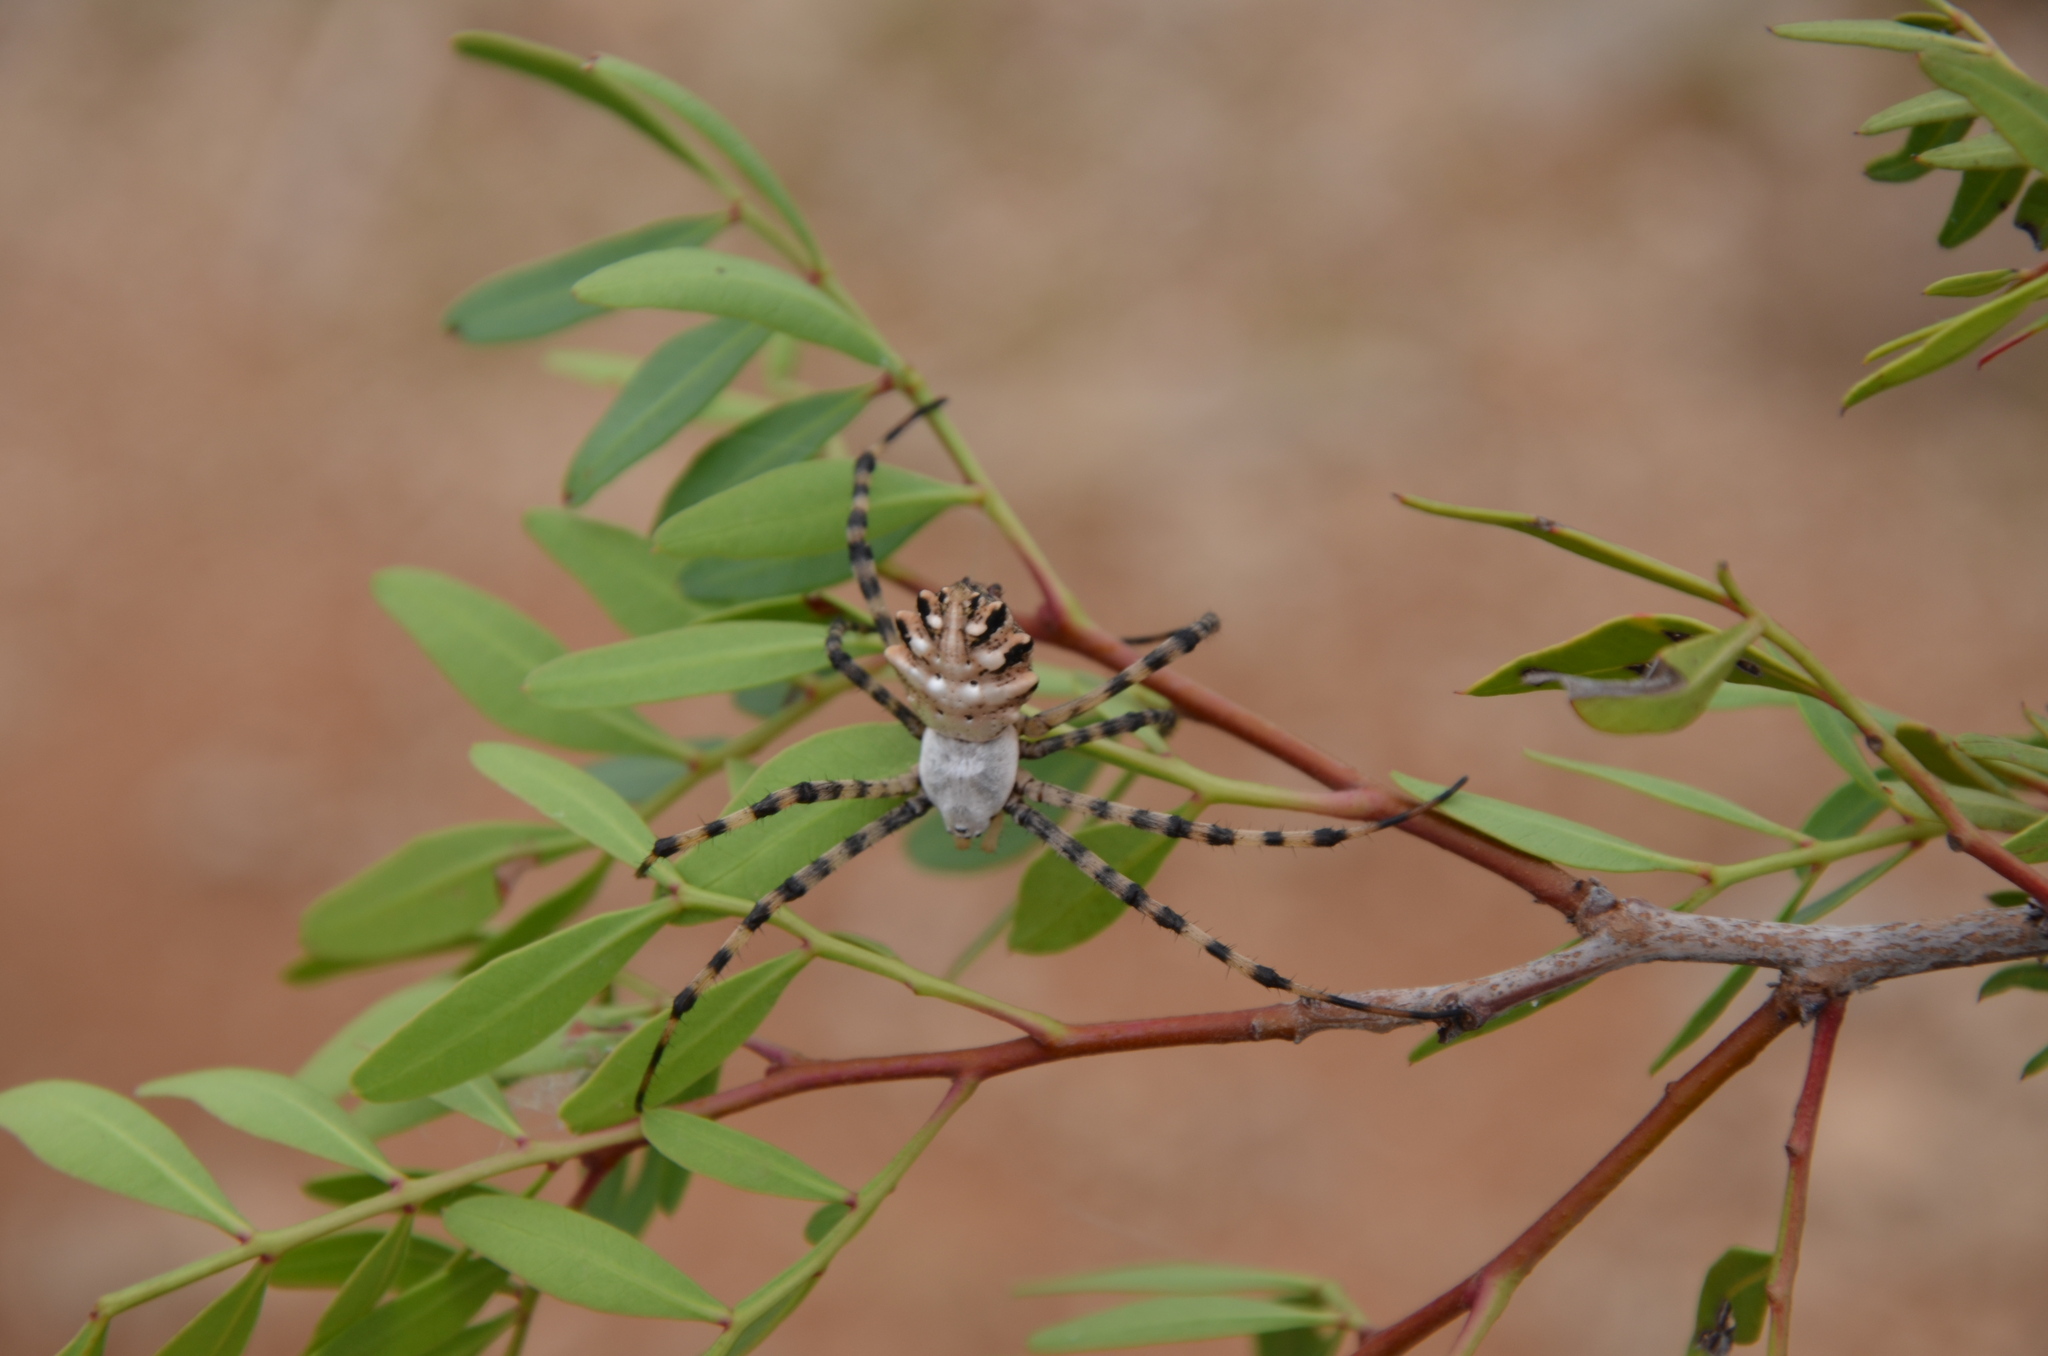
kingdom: Animalia
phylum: Arthropoda
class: Arachnida
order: Araneae
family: Araneidae
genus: Argiope
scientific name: Argiope lobata
